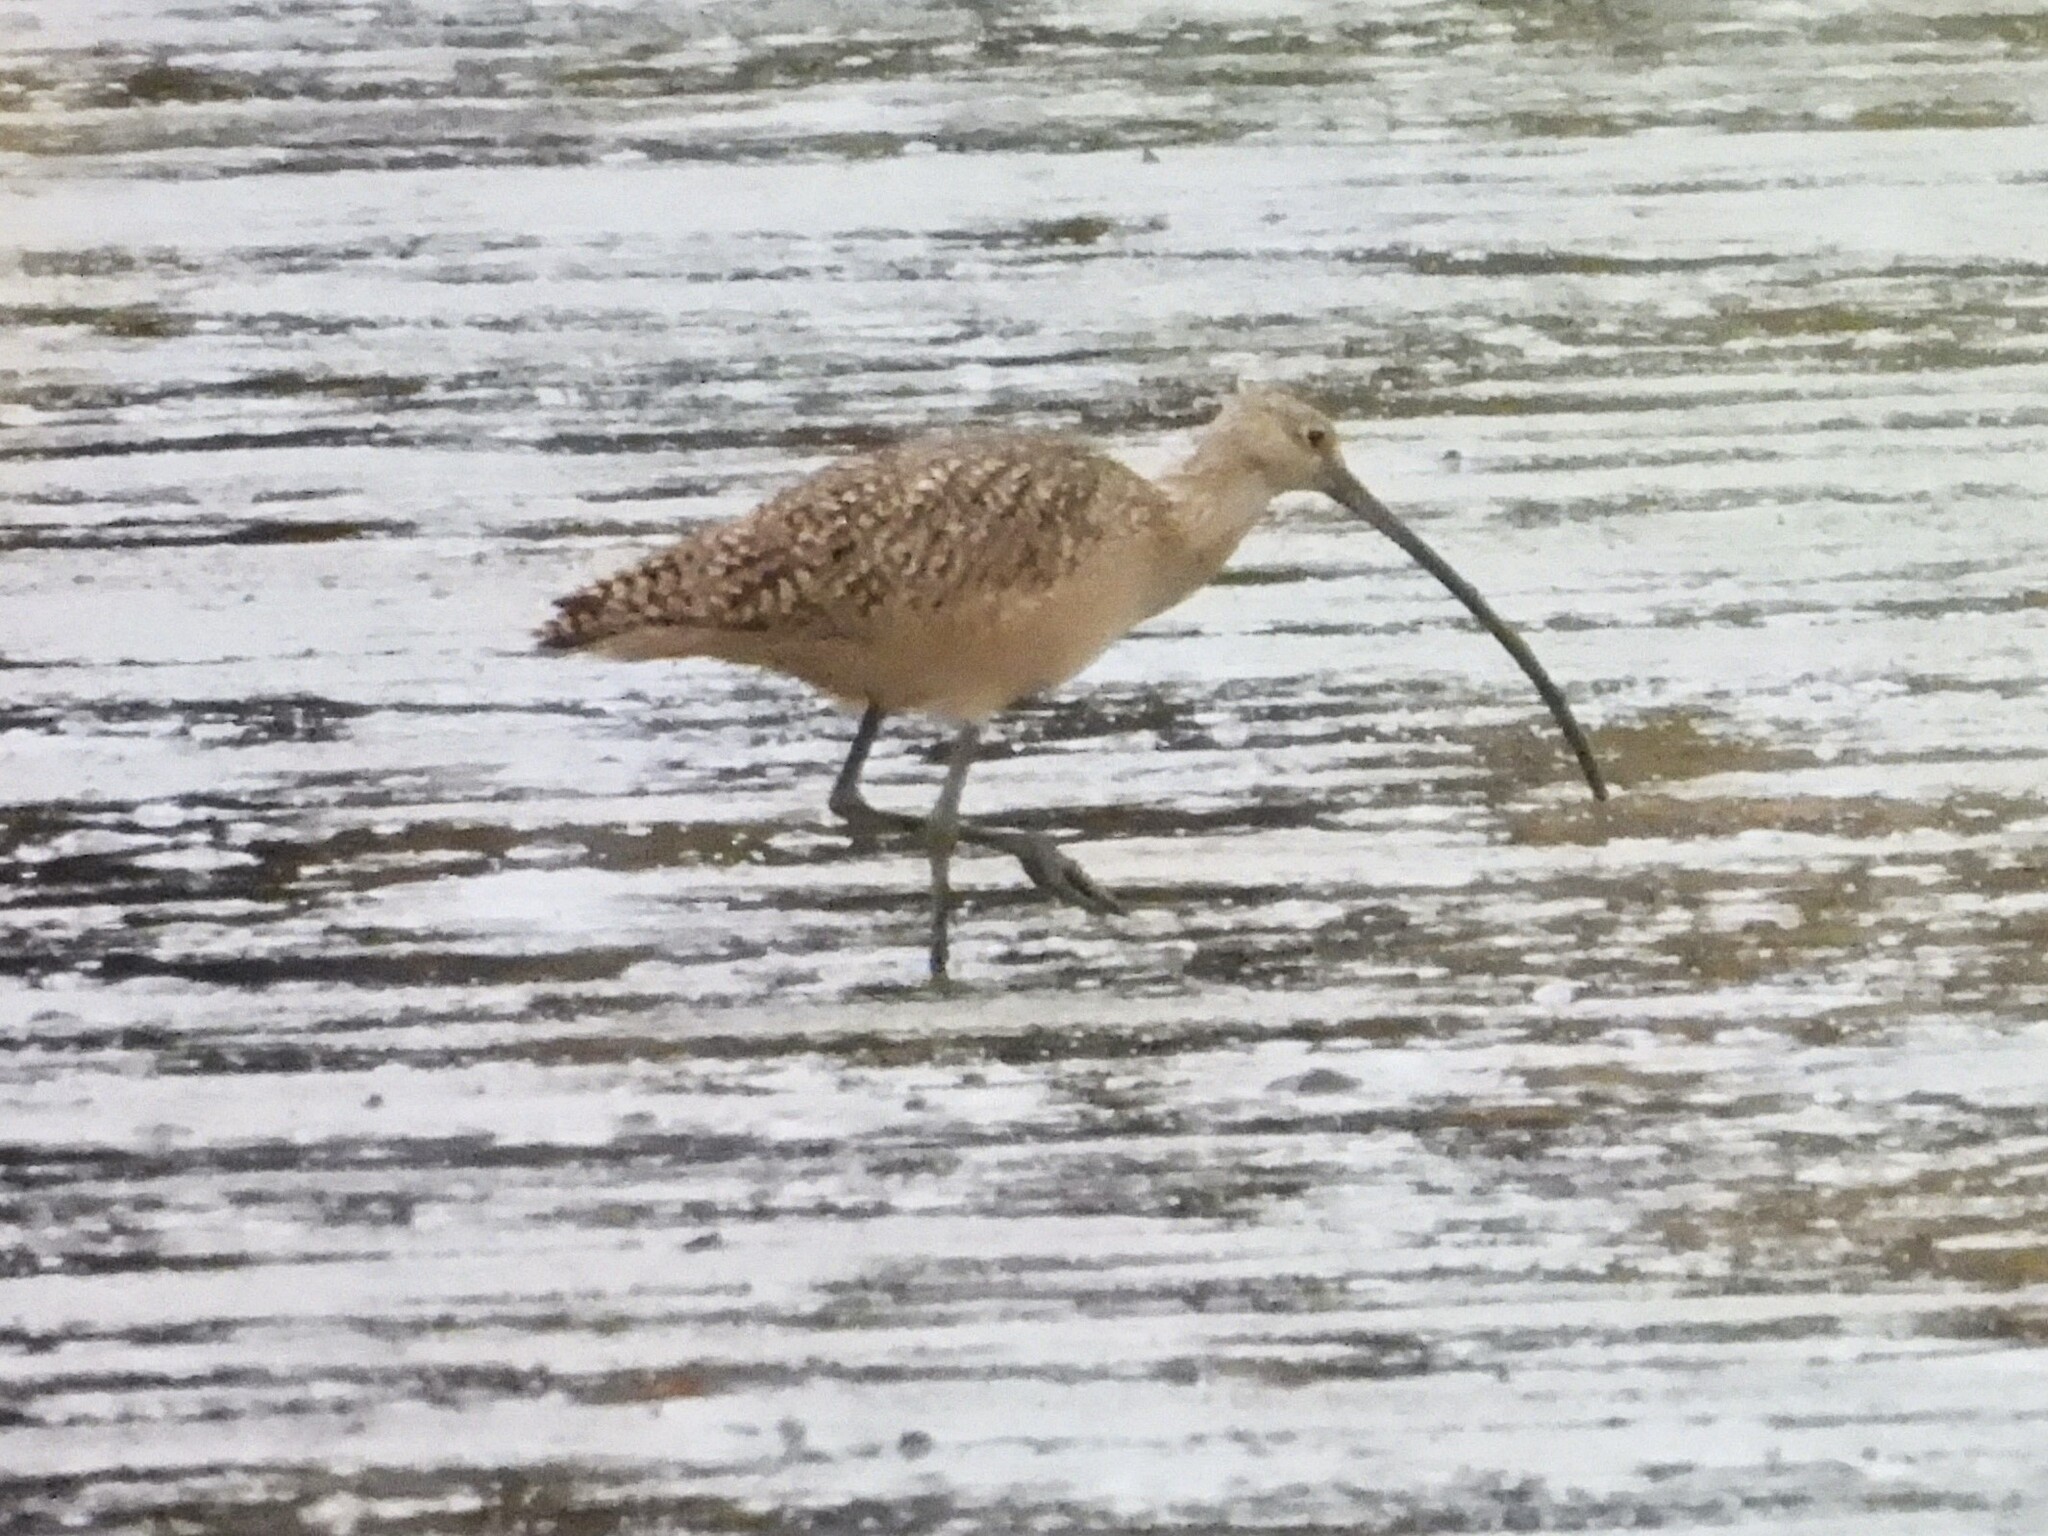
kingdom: Animalia
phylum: Chordata
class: Aves
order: Charadriiformes
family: Scolopacidae
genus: Numenius
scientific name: Numenius americanus
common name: Long-billed curlew
